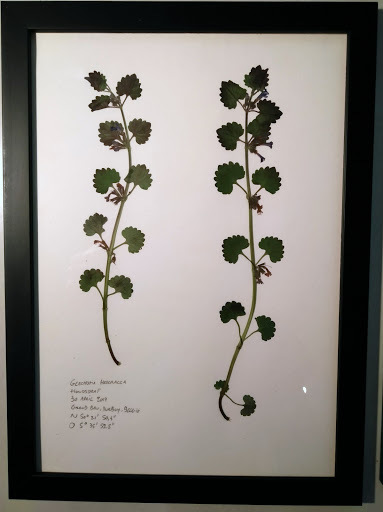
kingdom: Plantae
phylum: Tracheophyta
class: Magnoliopsida
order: Lamiales
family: Lamiaceae
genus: Glechoma
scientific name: Glechoma hederacea
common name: Ground ivy
